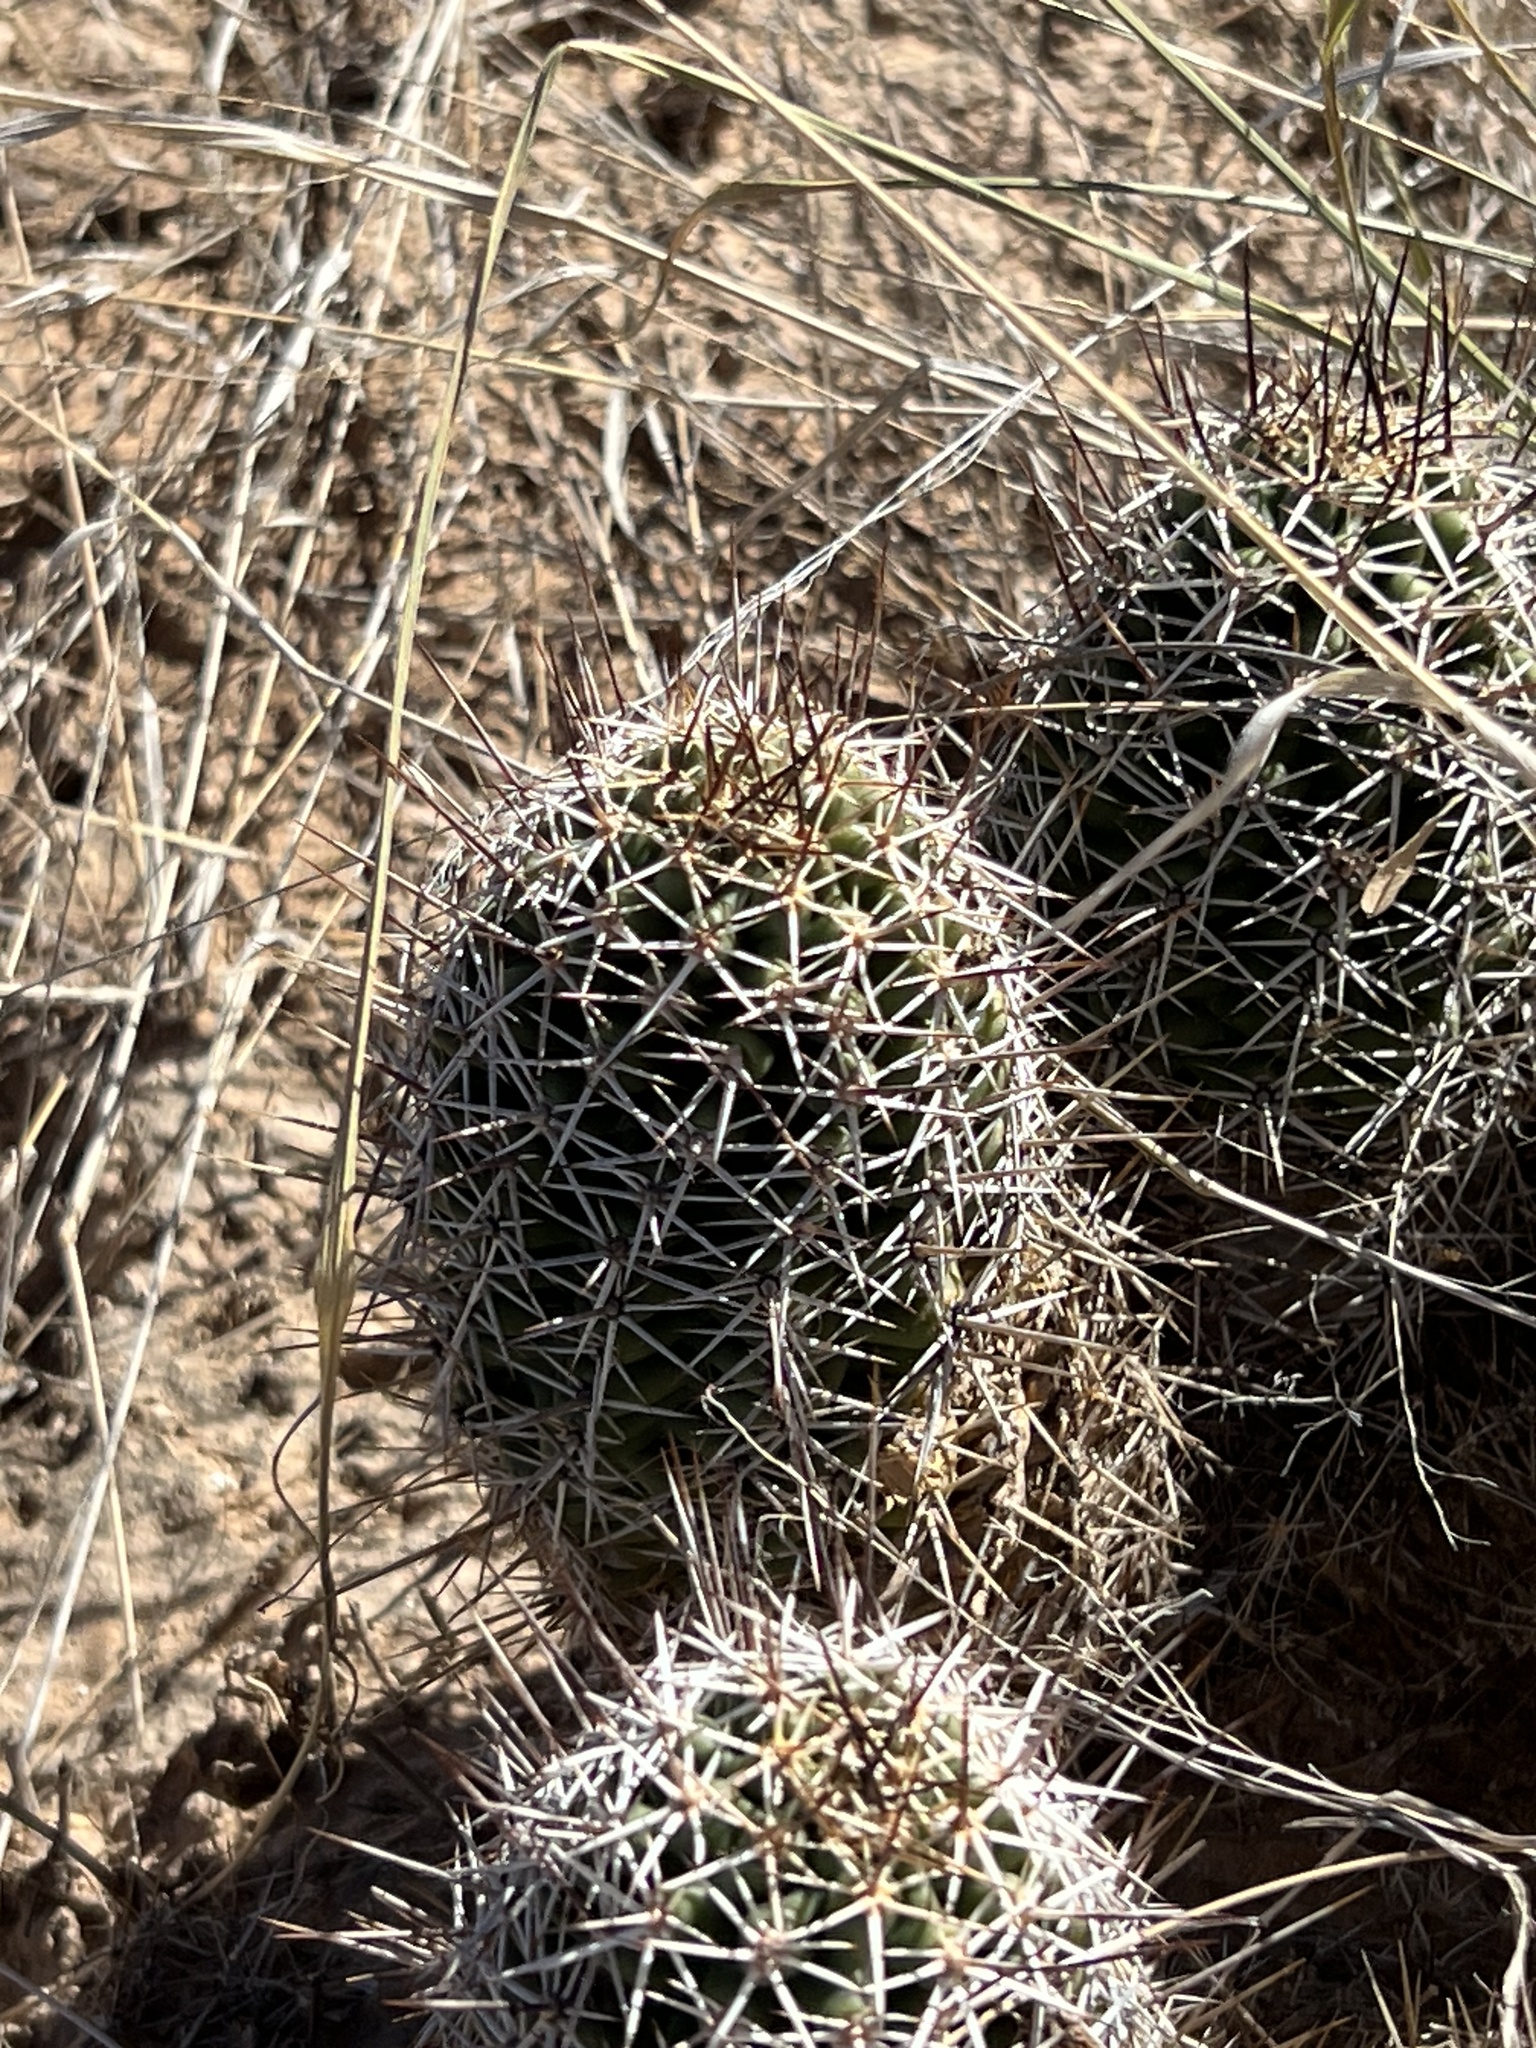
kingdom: Plantae
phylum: Tracheophyta
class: Magnoliopsida
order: Caryophyllales
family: Cactaceae
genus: Echinocereus
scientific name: Echinocereus fendleri
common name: Fendler's hedgehog cactus
